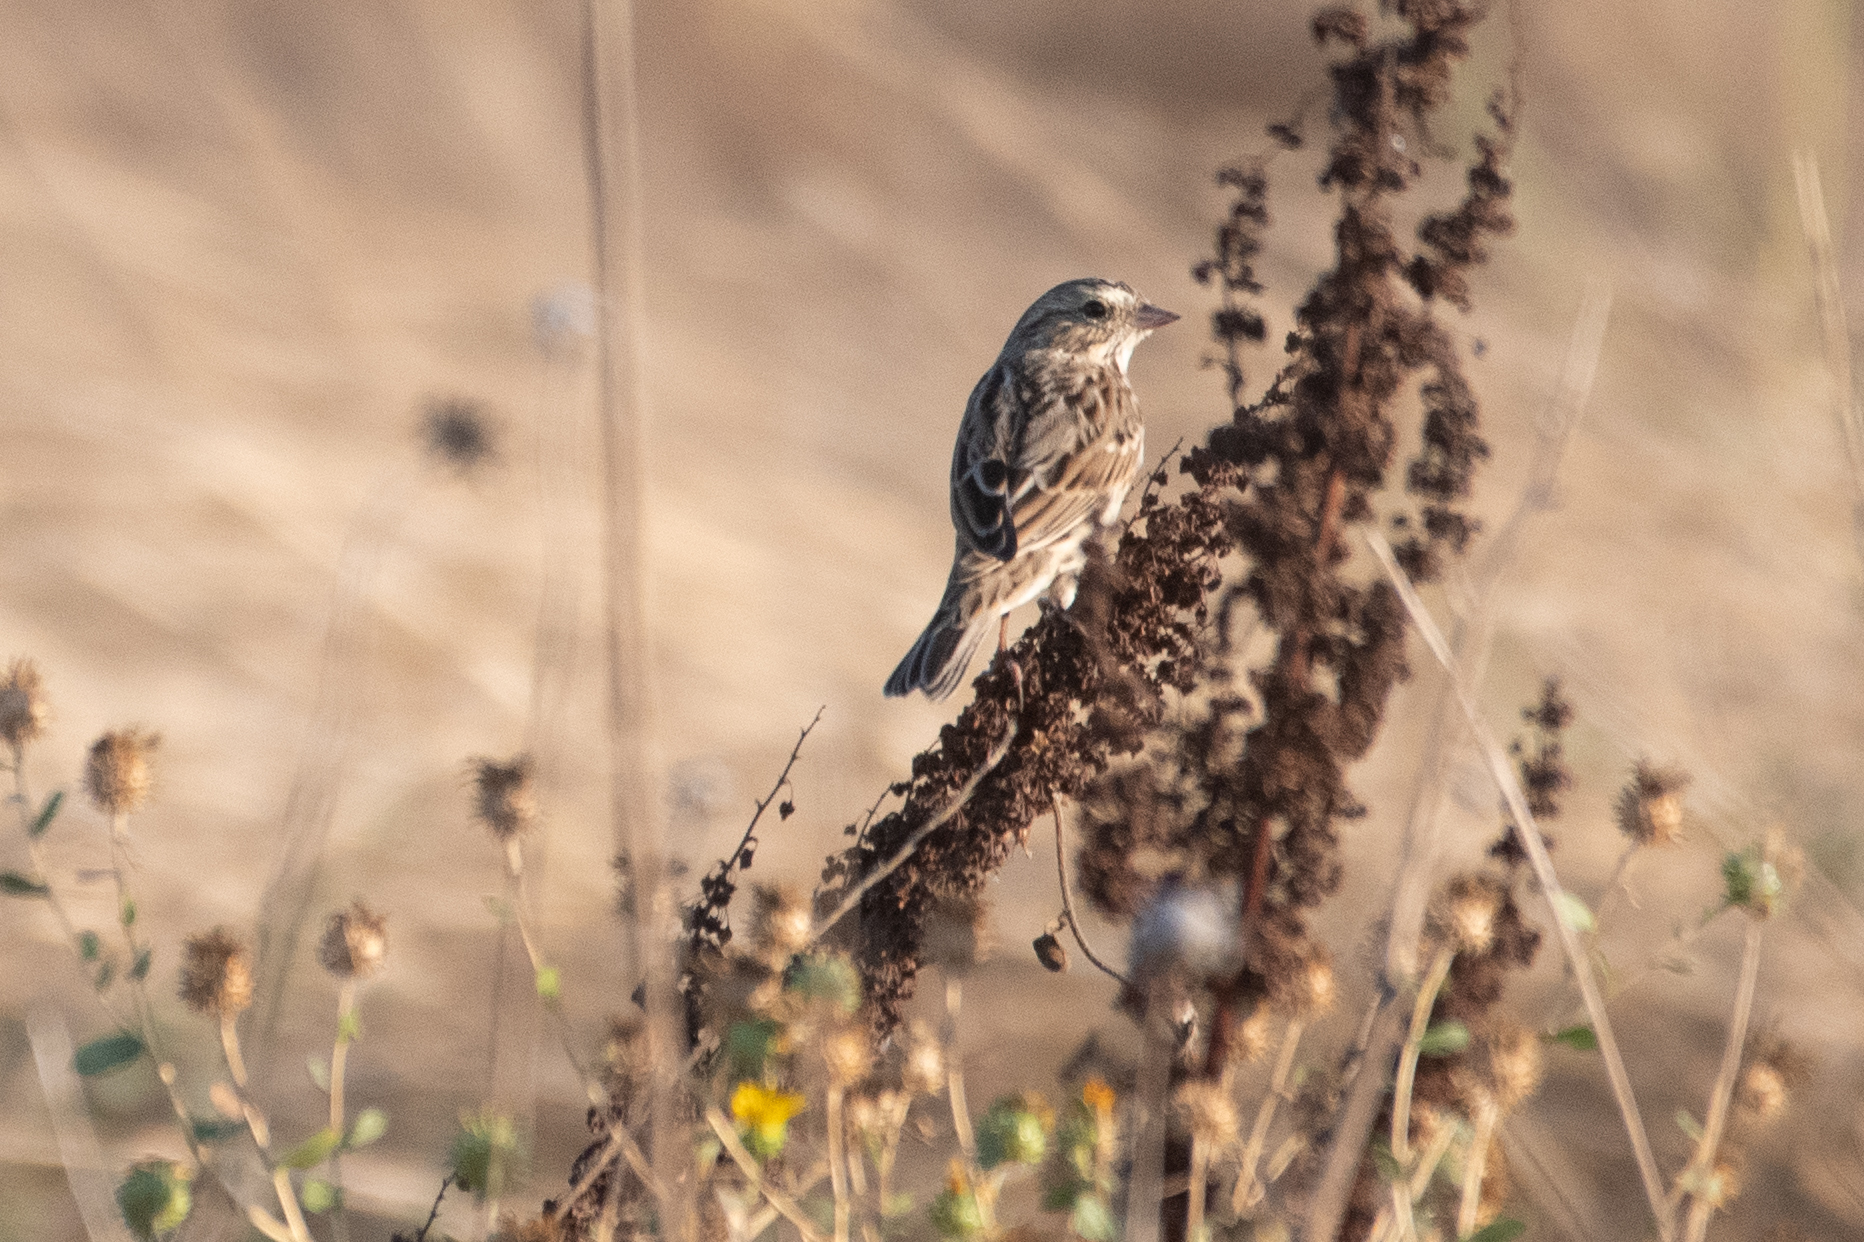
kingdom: Animalia
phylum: Chordata
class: Aves
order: Passeriformes
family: Passerellidae
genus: Passerculus
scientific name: Passerculus sandwichensis
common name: Savannah sparrow
